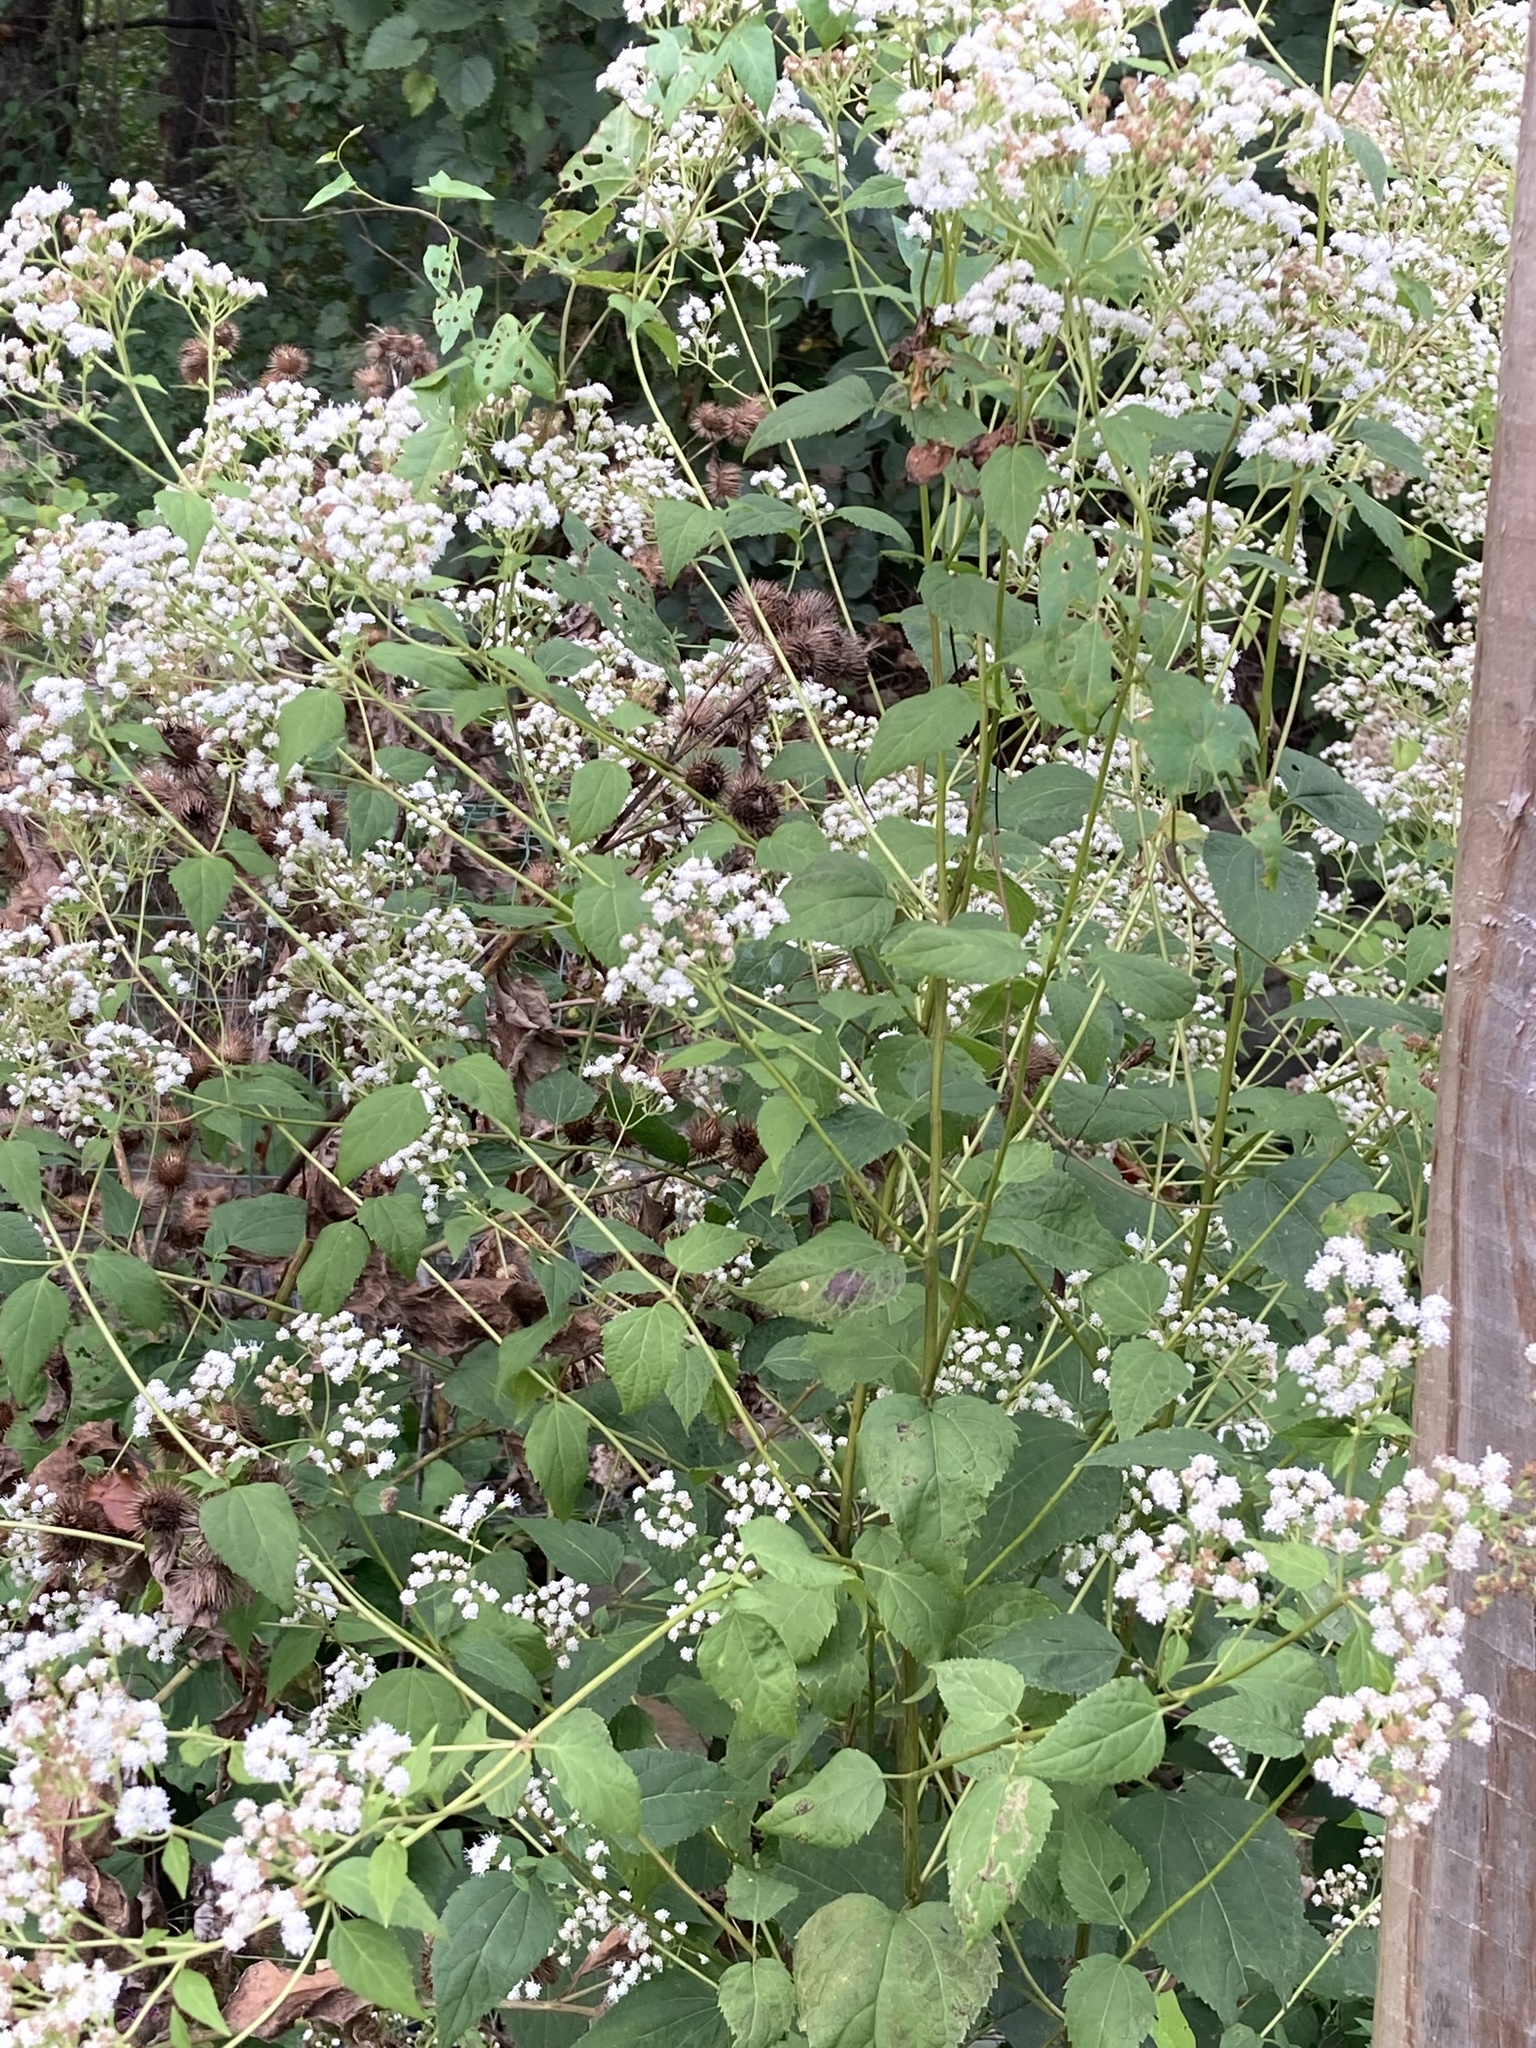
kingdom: Plantae
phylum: Tracheophyta
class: Magnoliopsida
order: Asterales
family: Asteraceae
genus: Ageratina
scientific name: Ageratina altissima
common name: White snakeroot
